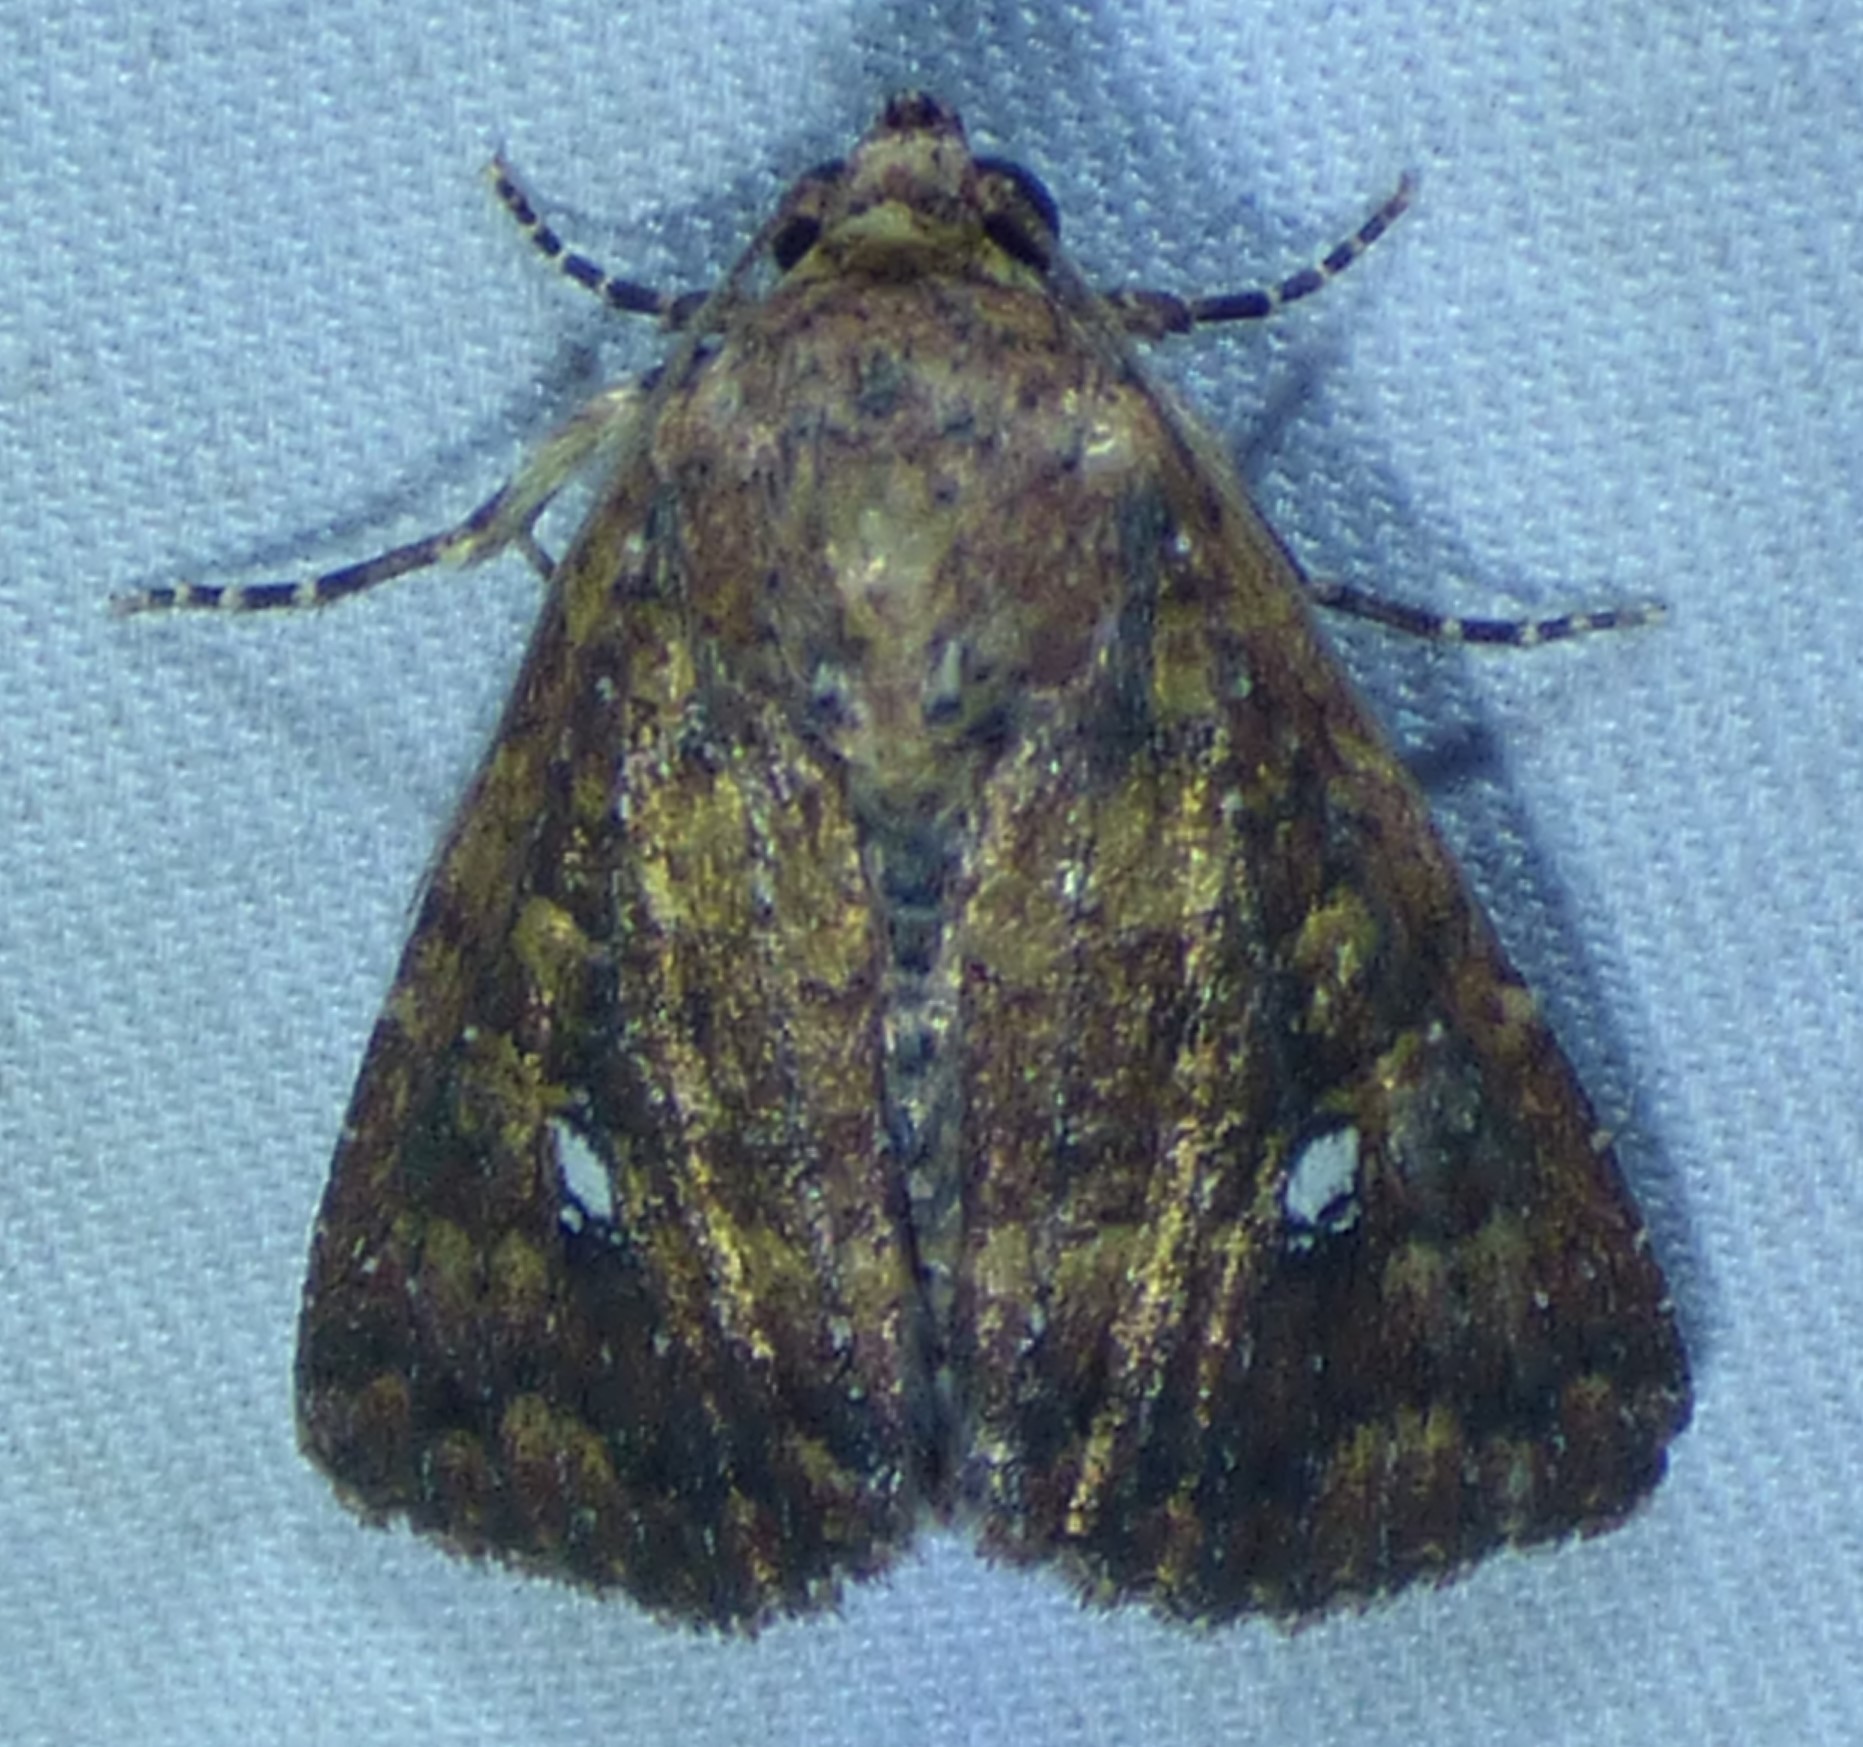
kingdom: Animalia
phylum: Arthropoda
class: Insecta
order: Lepidoptera
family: Noctuidae
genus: Condica
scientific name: Condica vecors
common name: Dusky groundling
